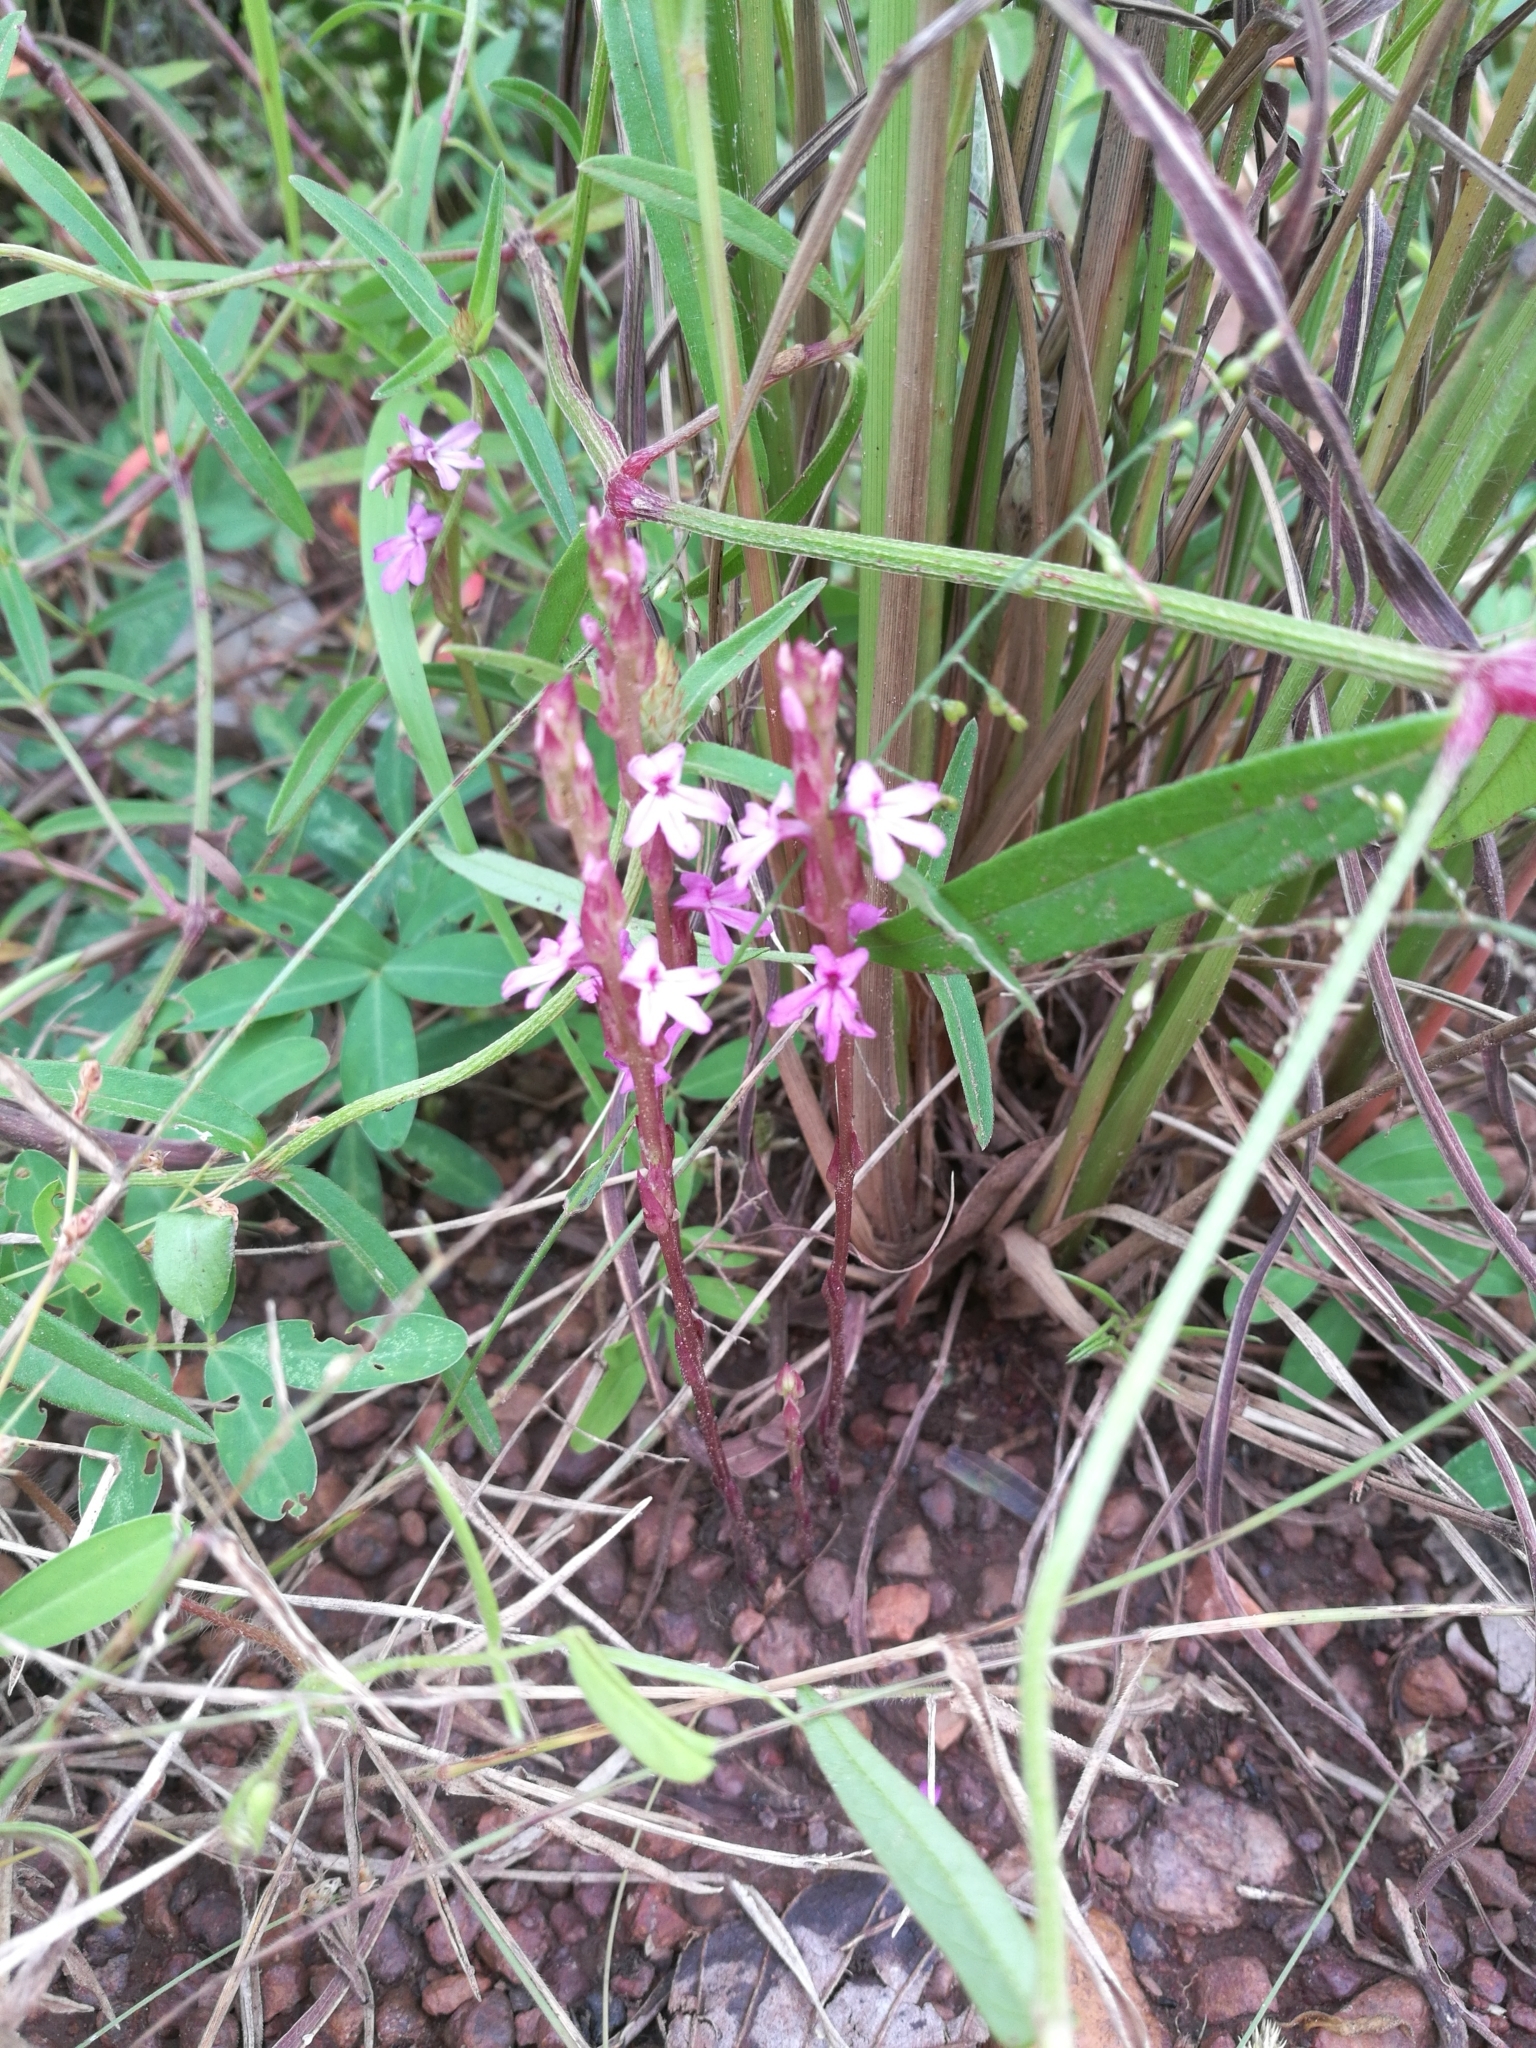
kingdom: Plantae
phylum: Tracheophyta
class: Magnoliopsida
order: Lamiales
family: Orobanchaceae
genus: Striga
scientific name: Striga gesnerioides
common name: Cowpea witchweed
